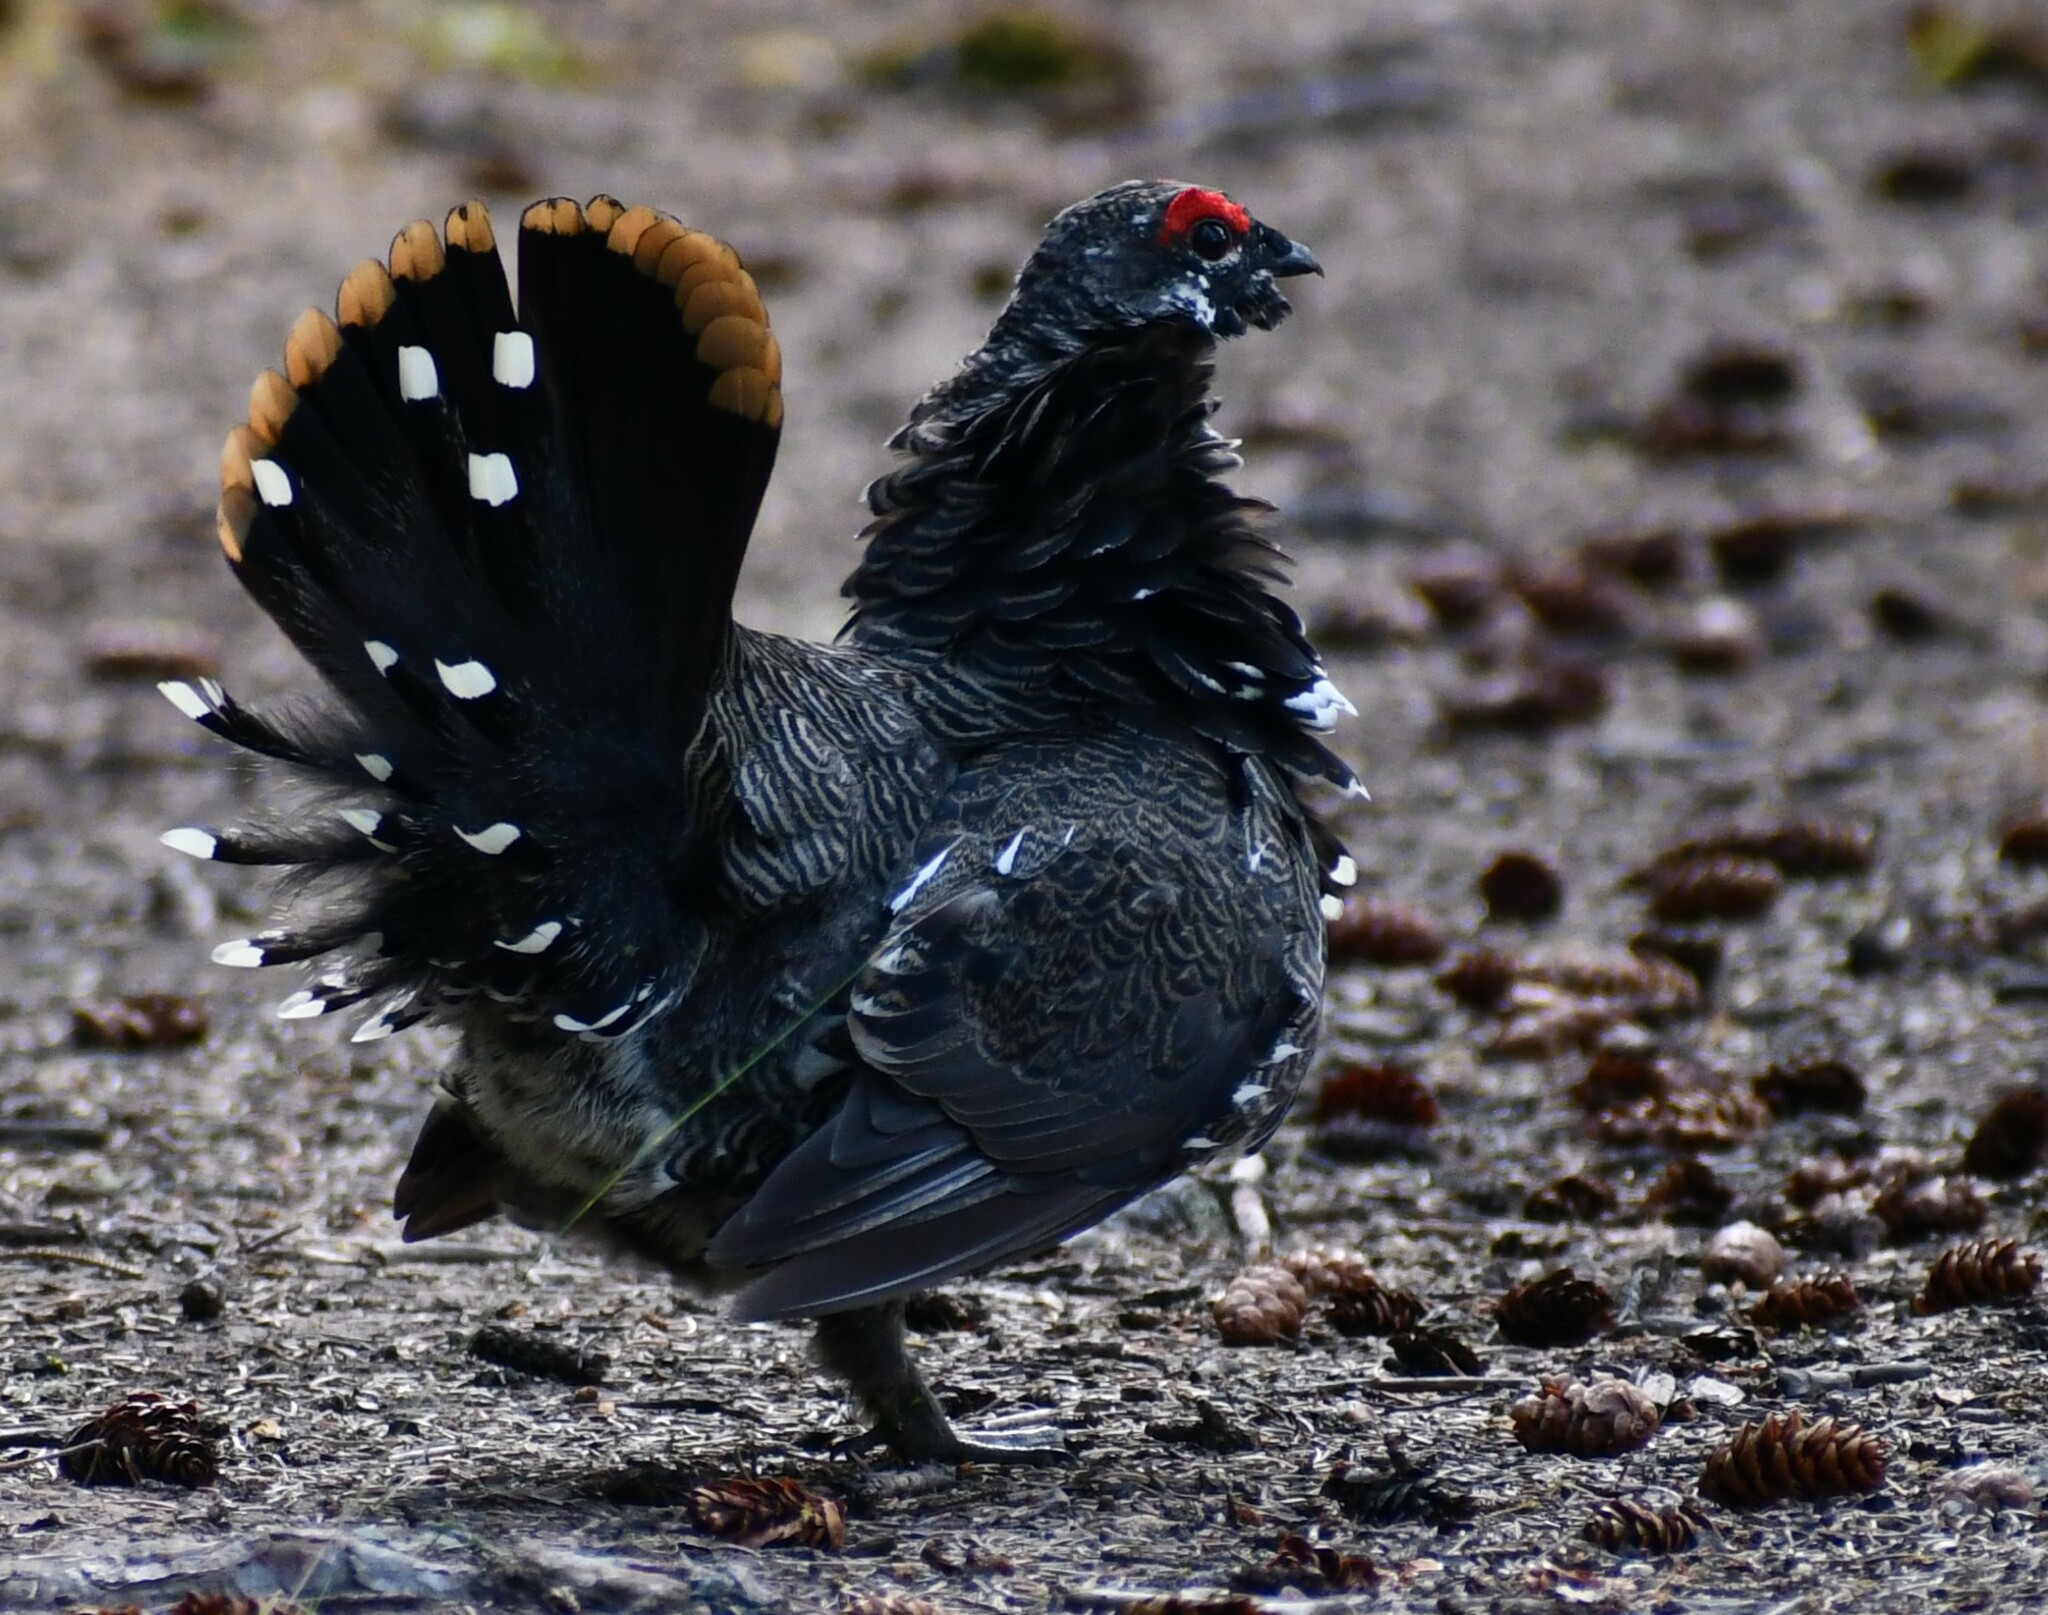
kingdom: Animalia
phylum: Chordata
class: Aves
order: Galliformes
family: Phasianidae
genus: Canachites
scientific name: Canachites canadensis
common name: Spruce grouse
